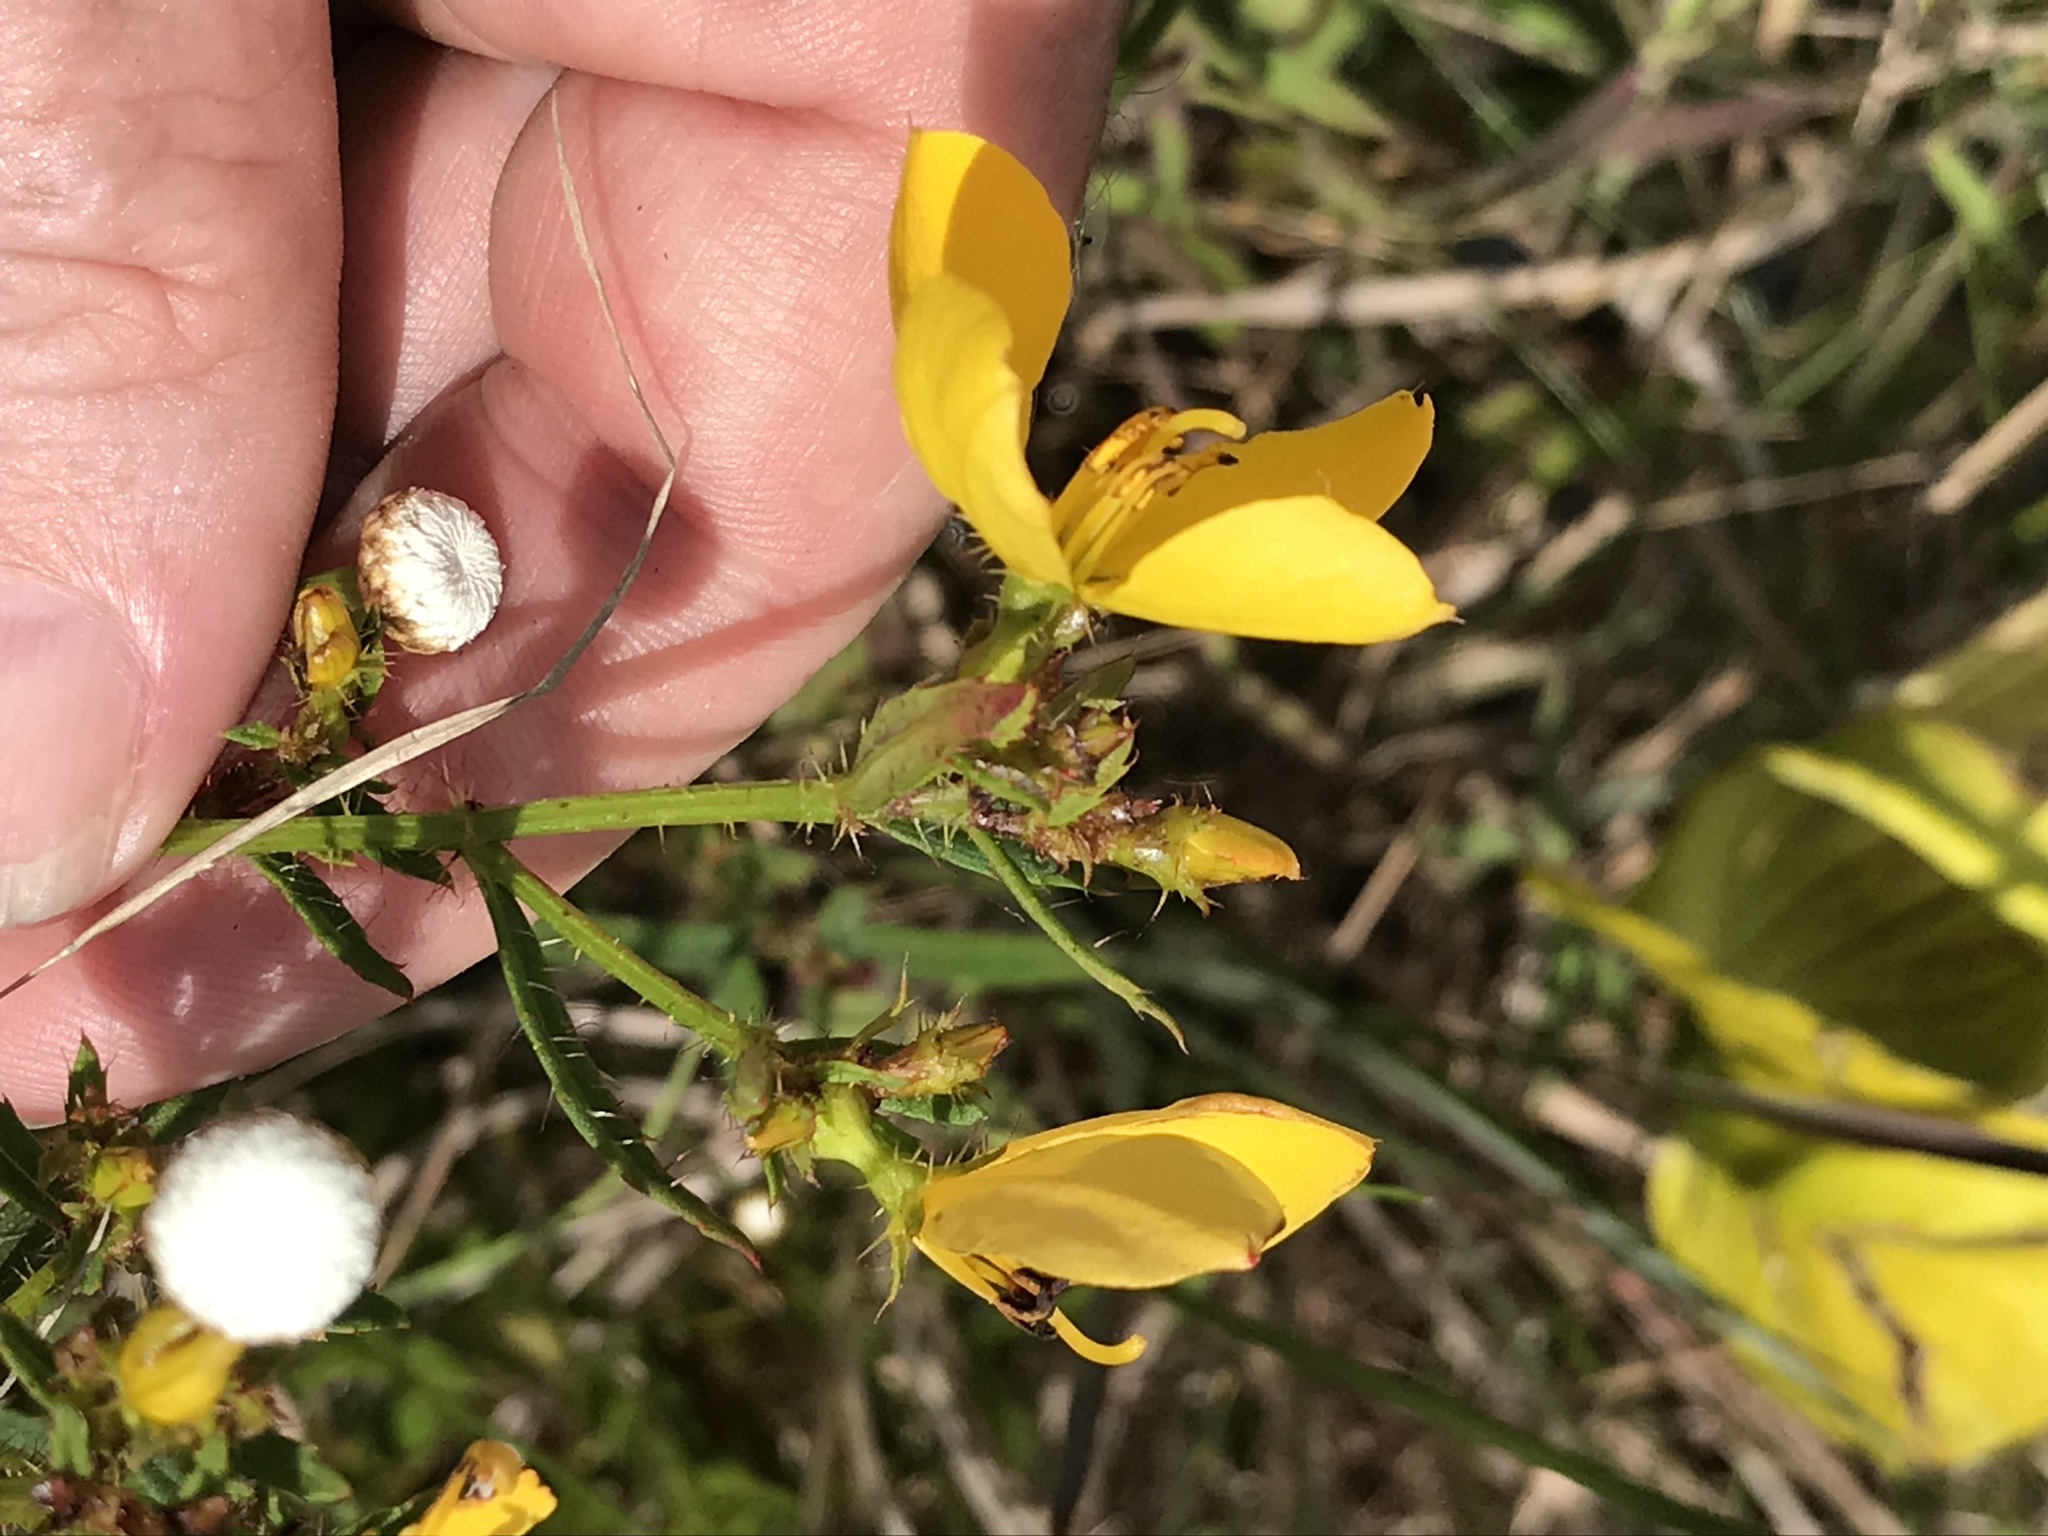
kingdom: Plantae
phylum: Tracheophyta
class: Magnoliopsida
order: Myrtales
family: Melastomataceae
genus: Rhexia
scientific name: Rhexia lutea
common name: Golden meadow-beauty
